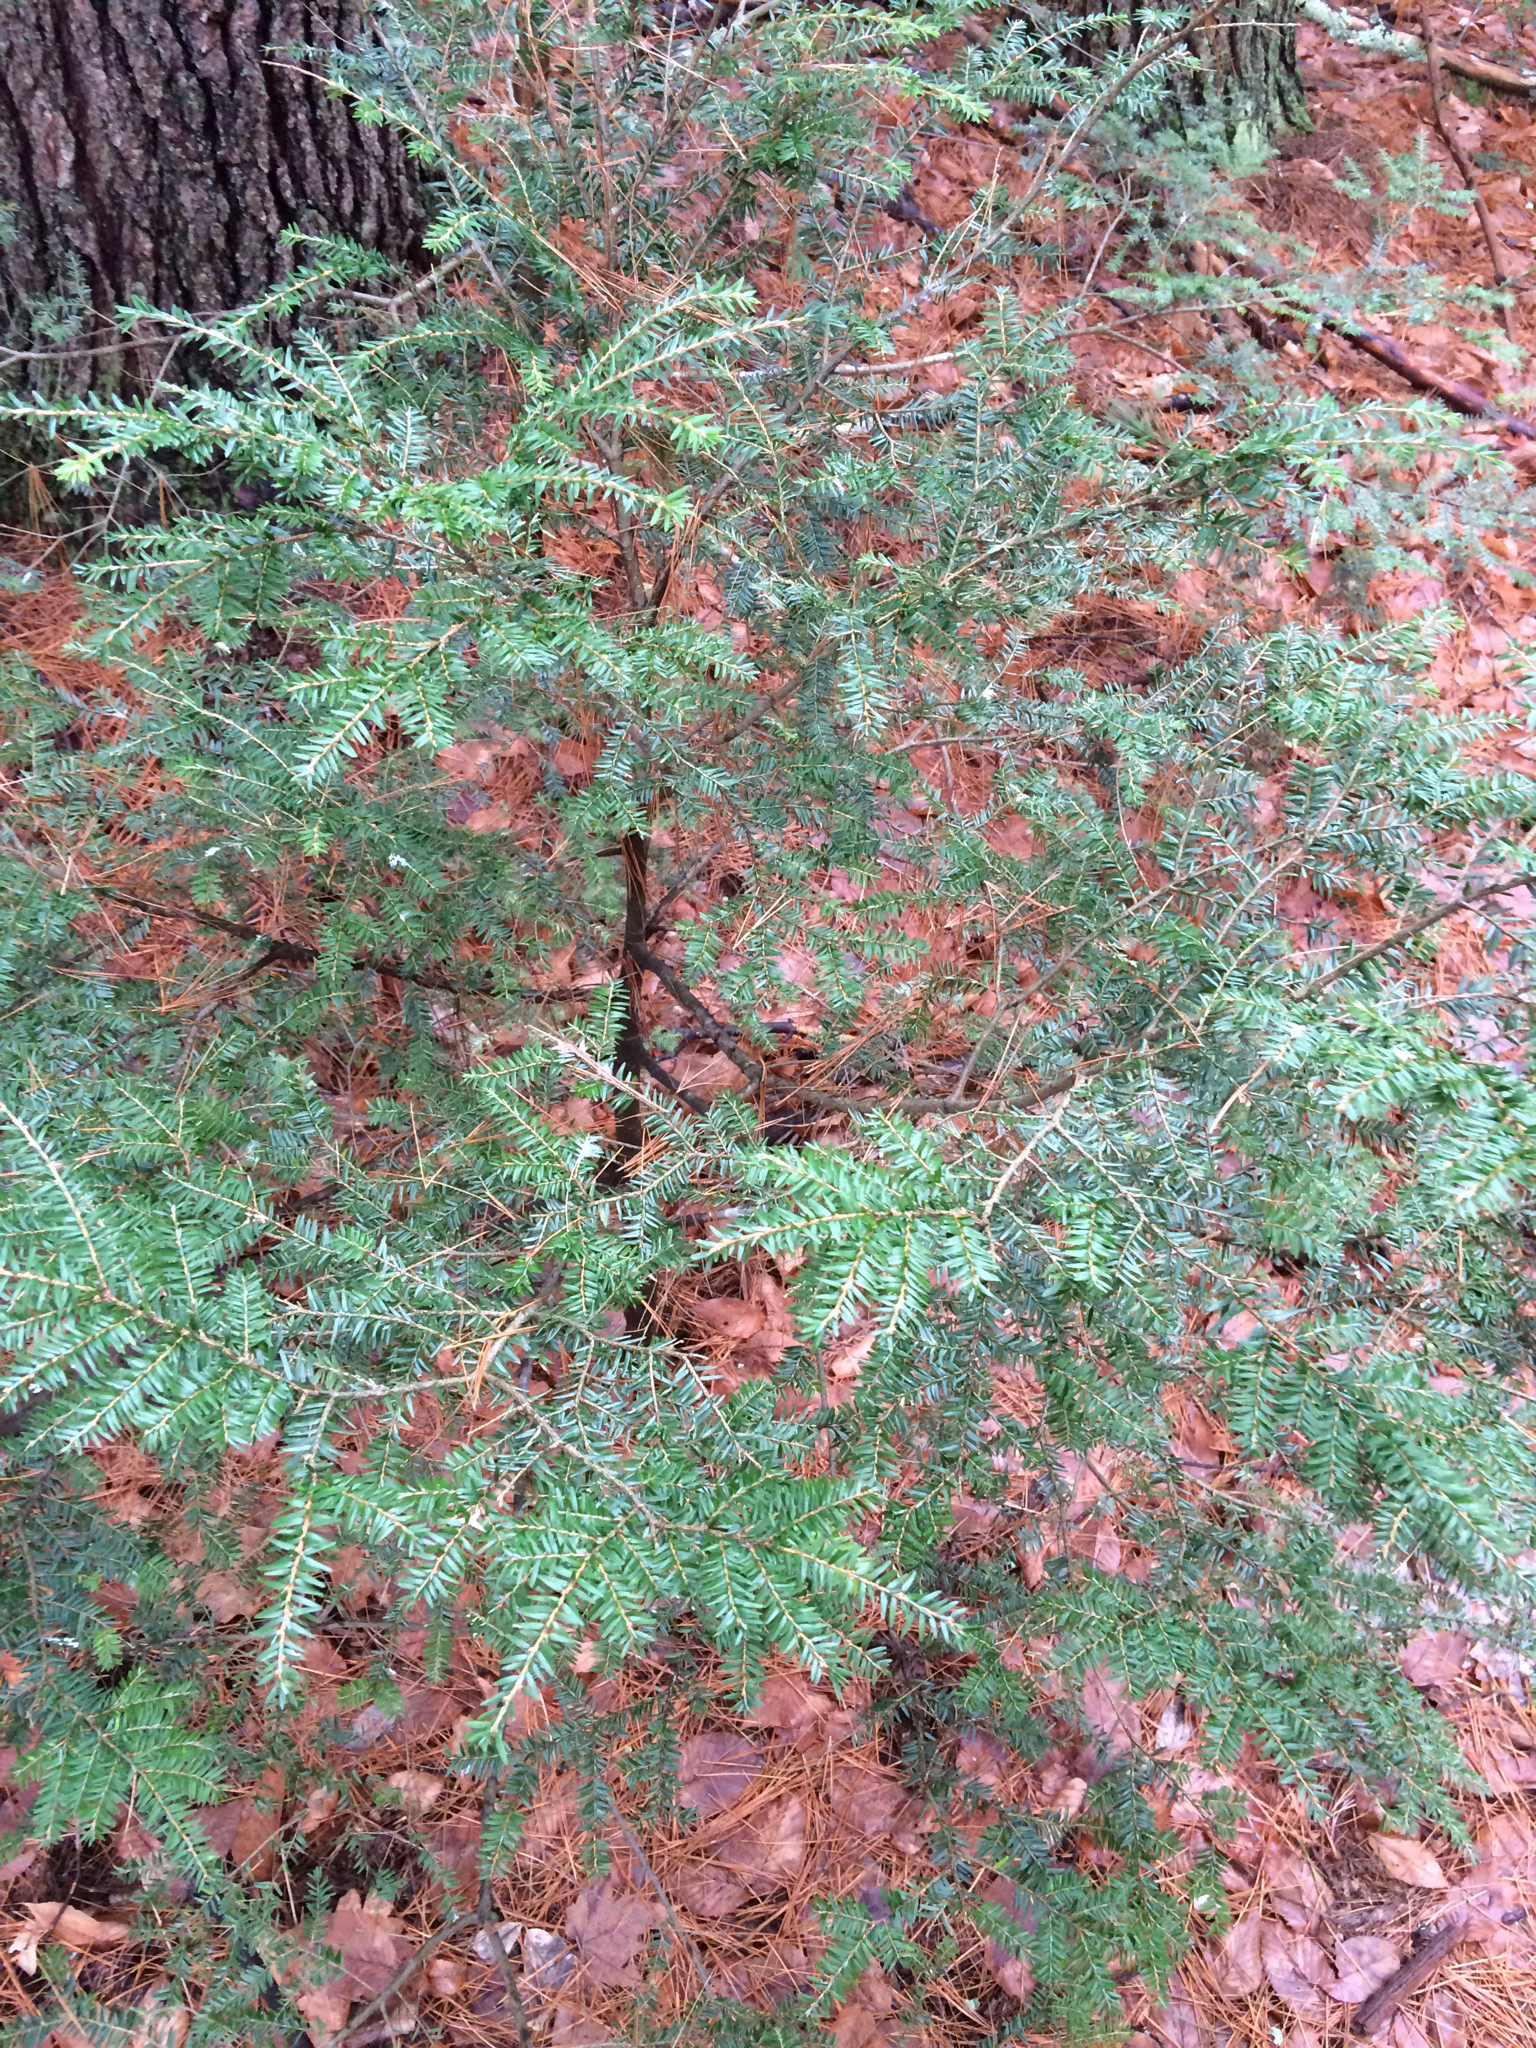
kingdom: Plantae
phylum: Tracheophyta
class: Pinopsida
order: Pinales
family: Pinaceae
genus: Tsuga
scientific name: Tsuga canadensis
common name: Eastern hemlock
